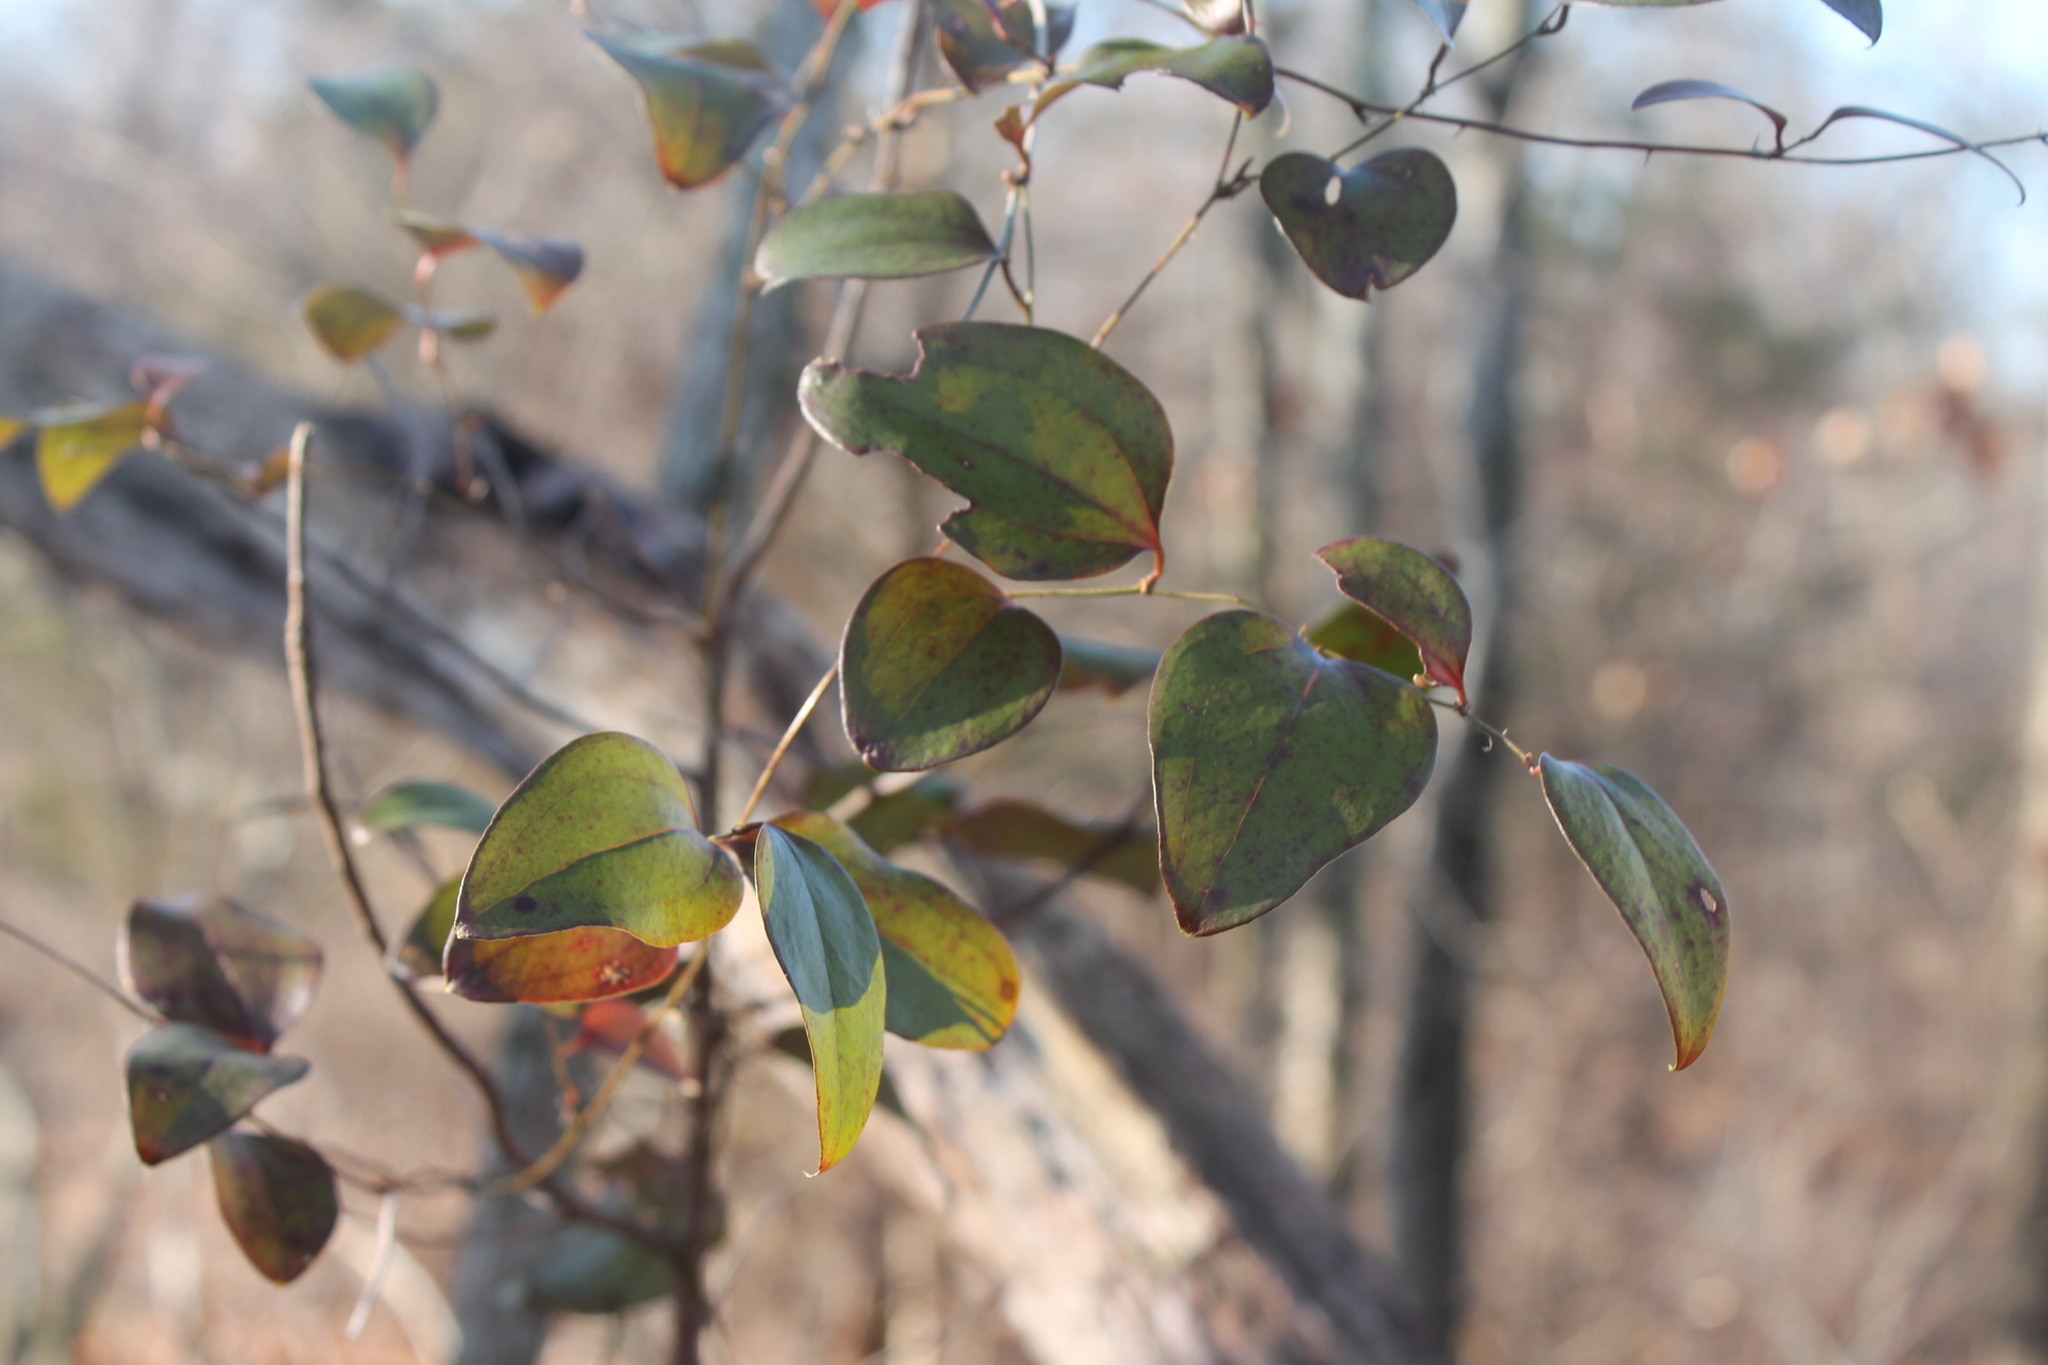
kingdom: Plantae
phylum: Tracheophyta
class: Liliopsida
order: Liliales
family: Smilacaceae
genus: Smilax
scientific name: Smilax glauca
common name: Cat greenbrier
